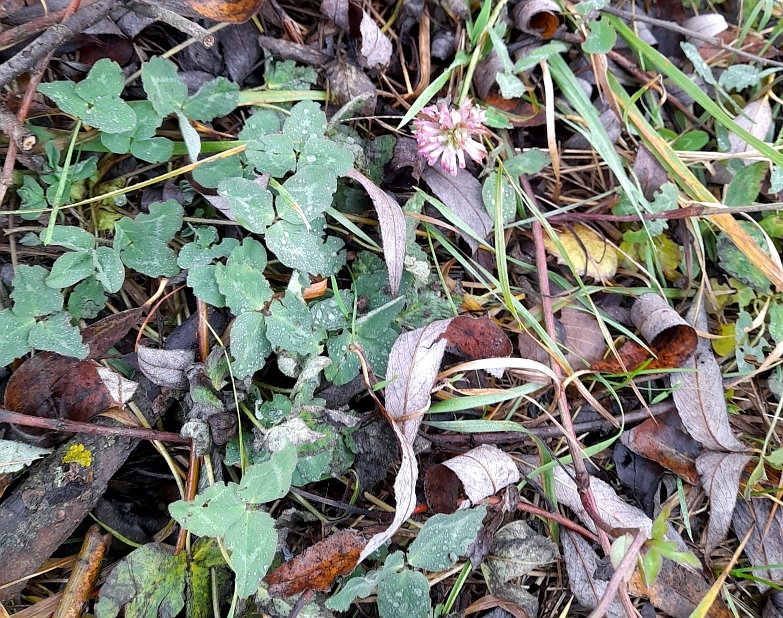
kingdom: Plantae
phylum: Tracheophyta
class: Magnoliopsida
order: Fabales
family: Fabaceae
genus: Trifolium
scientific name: Trifolium pratense
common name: Red clover
